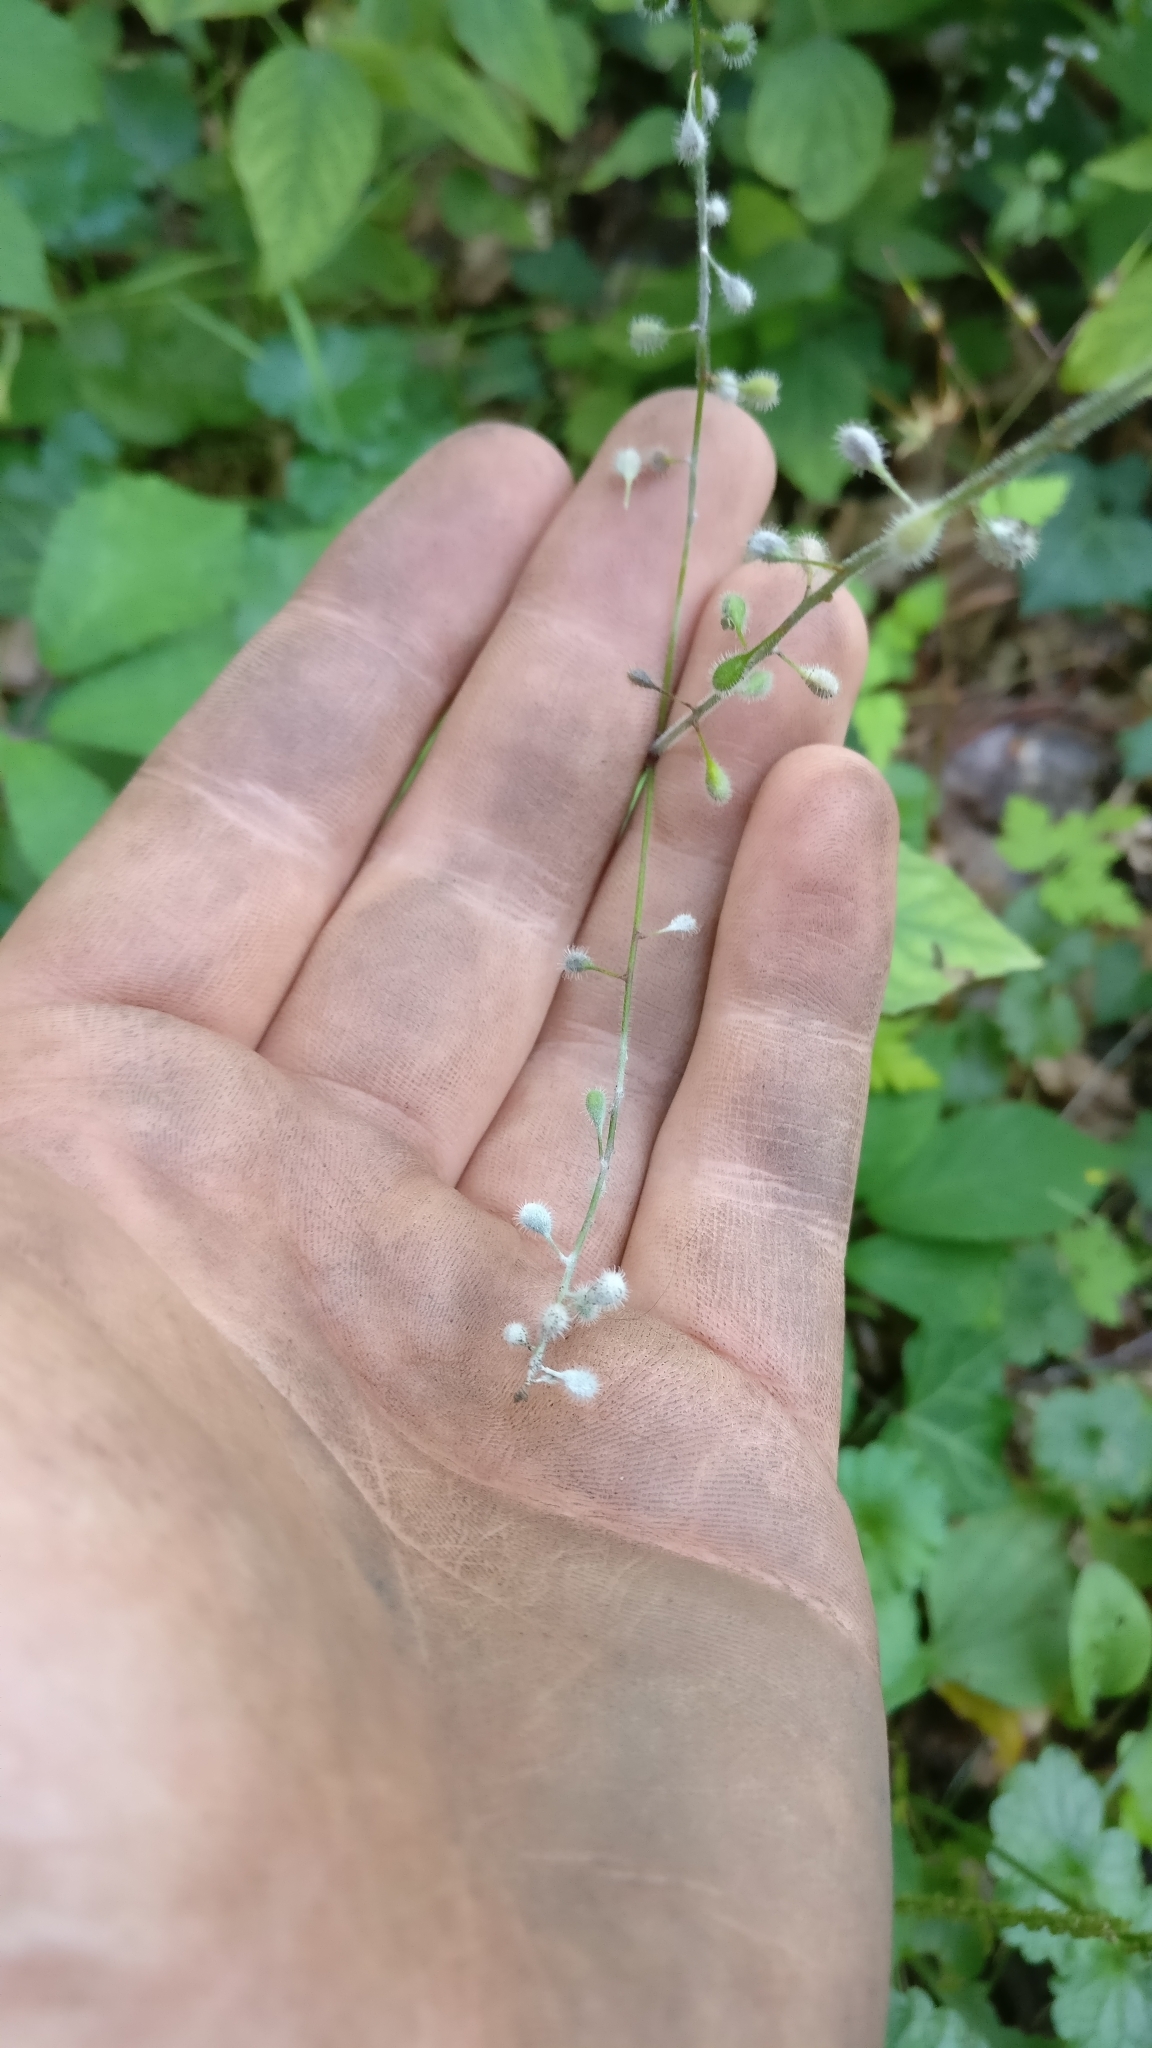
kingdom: Plantae
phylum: Tracheophyta
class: Magnoliopsida
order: Myrtales
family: Onagraceae
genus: Circaea
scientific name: Circaea lutetiana
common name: Enchanter's-nightshade
